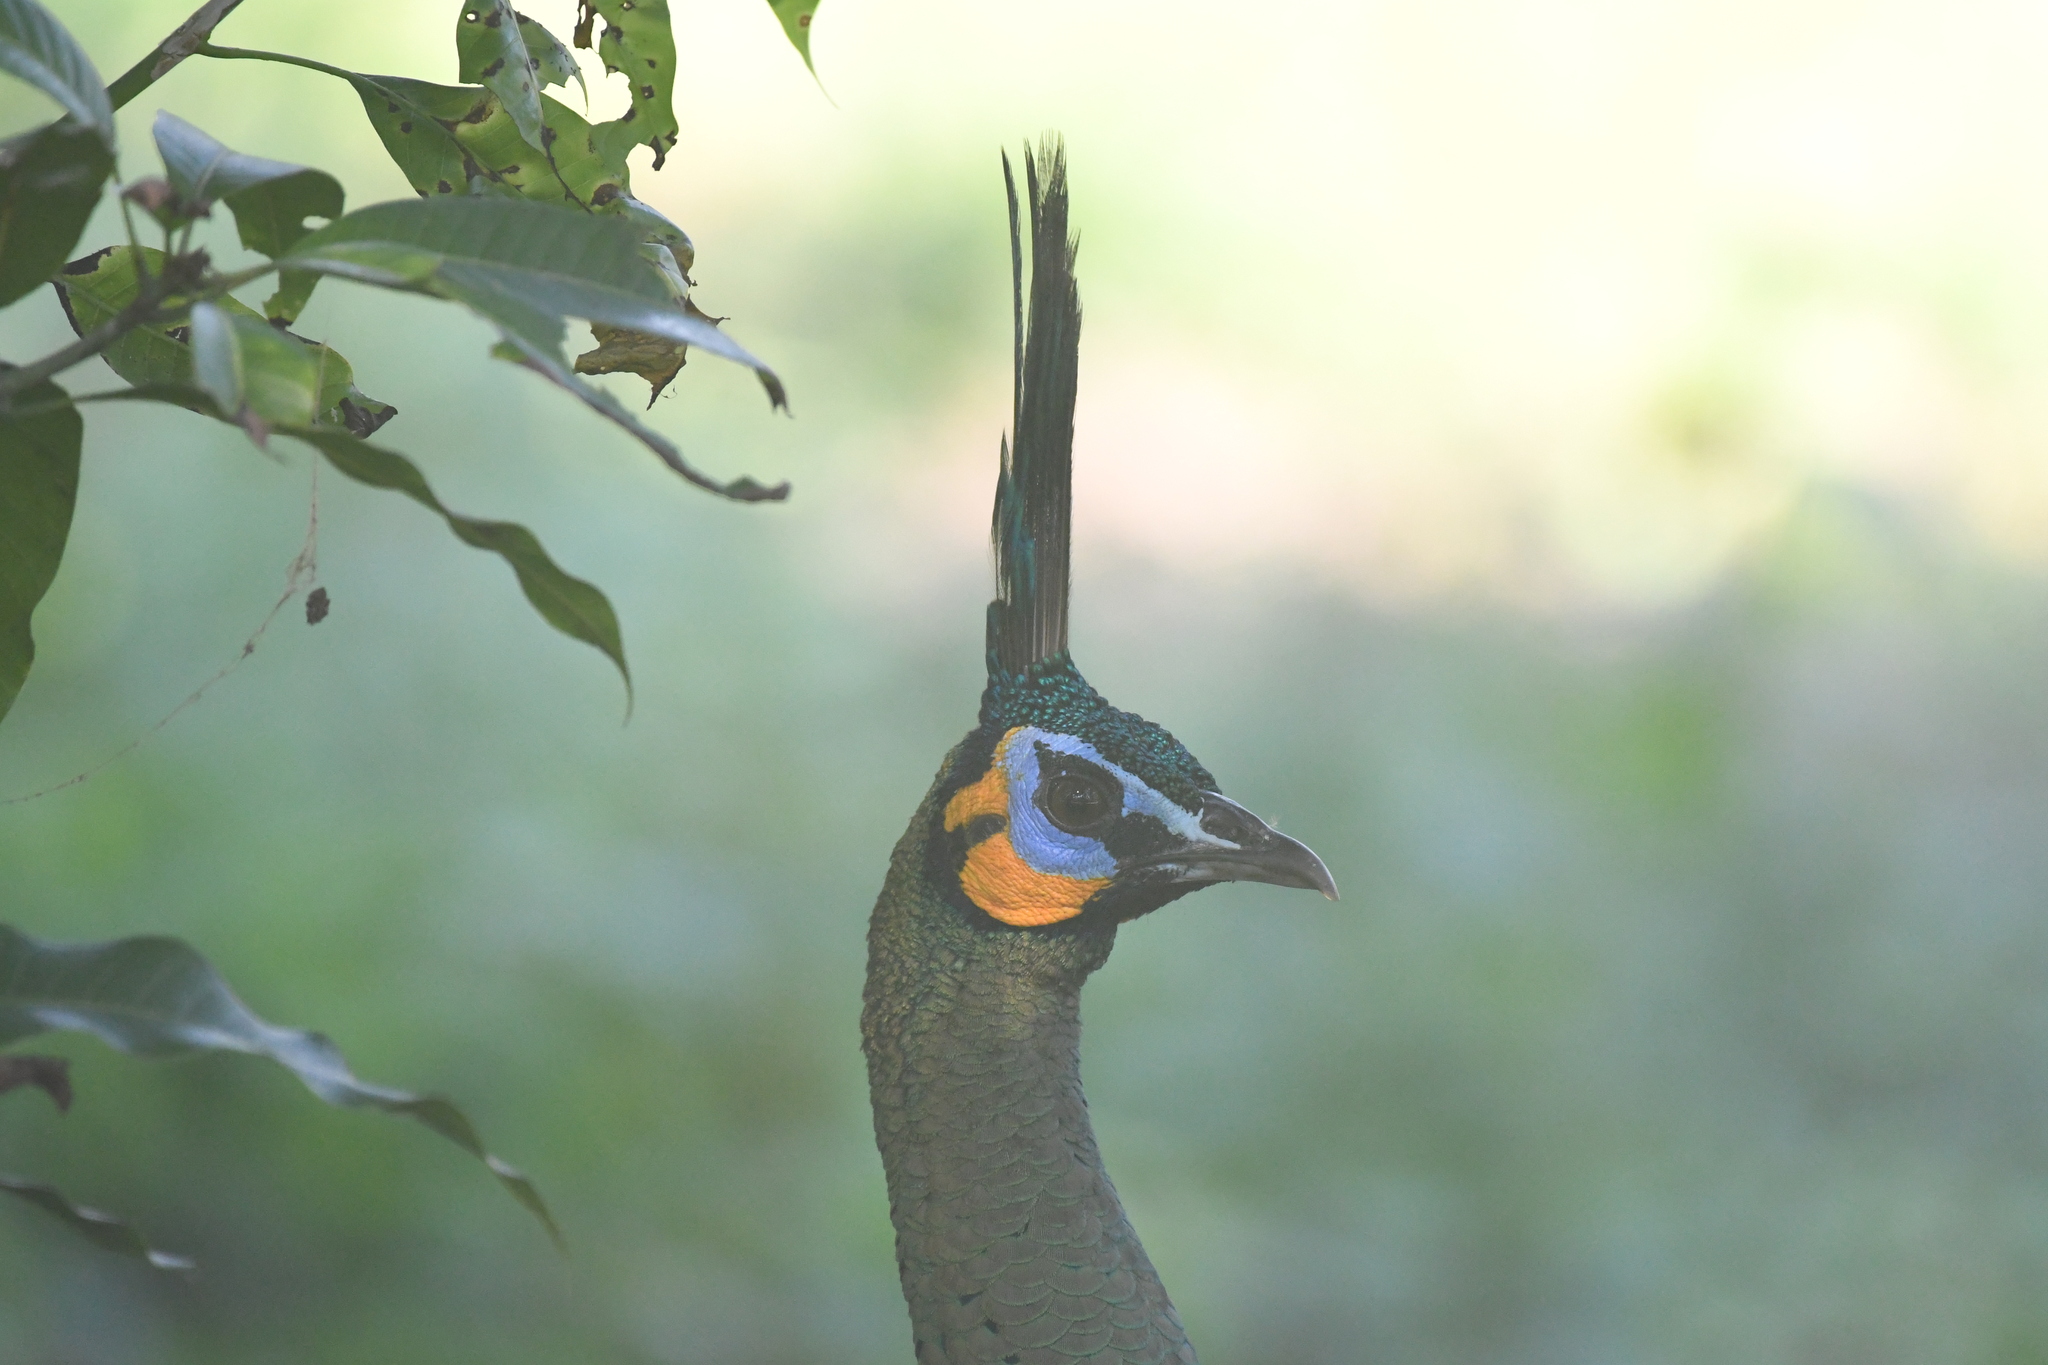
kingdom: Animalia
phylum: Chordata
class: Aves
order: Galliformes
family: Phasianidae
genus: Pavo
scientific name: Pavo muticus
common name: Green peafowl
